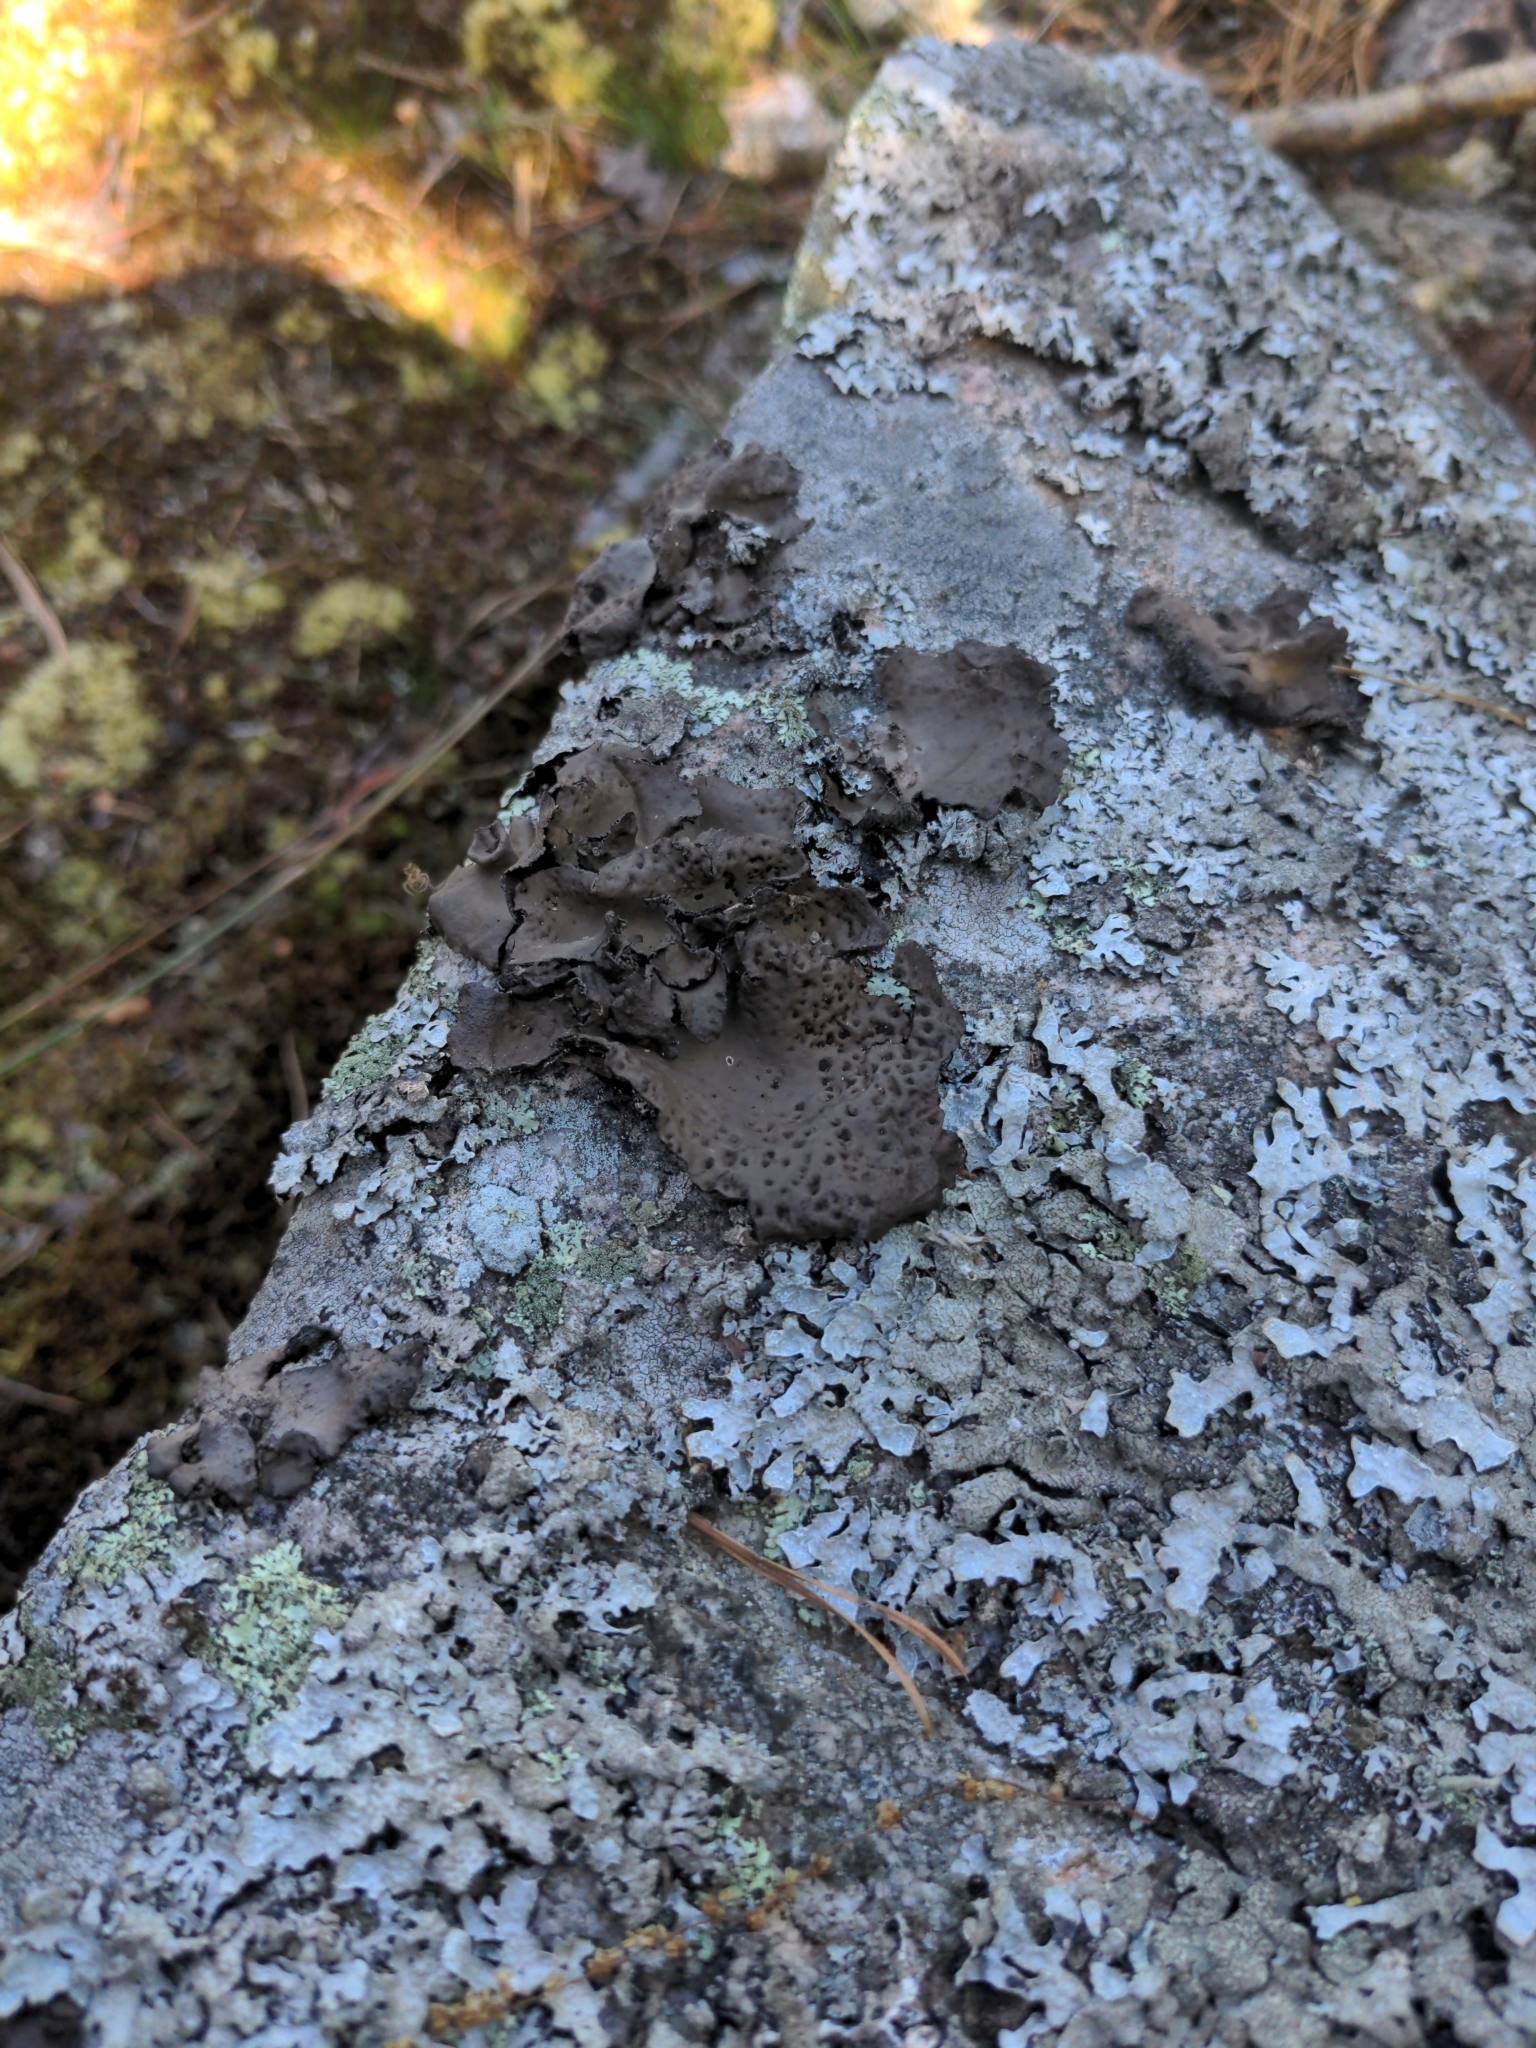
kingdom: Fungi
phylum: Ascomycota
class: Lecanoromycetes
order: Umbilicariales
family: Umbilicariaceae
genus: Umbilicaria
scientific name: Umbilicaria muhlenbergii
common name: Lesser rocktripe
